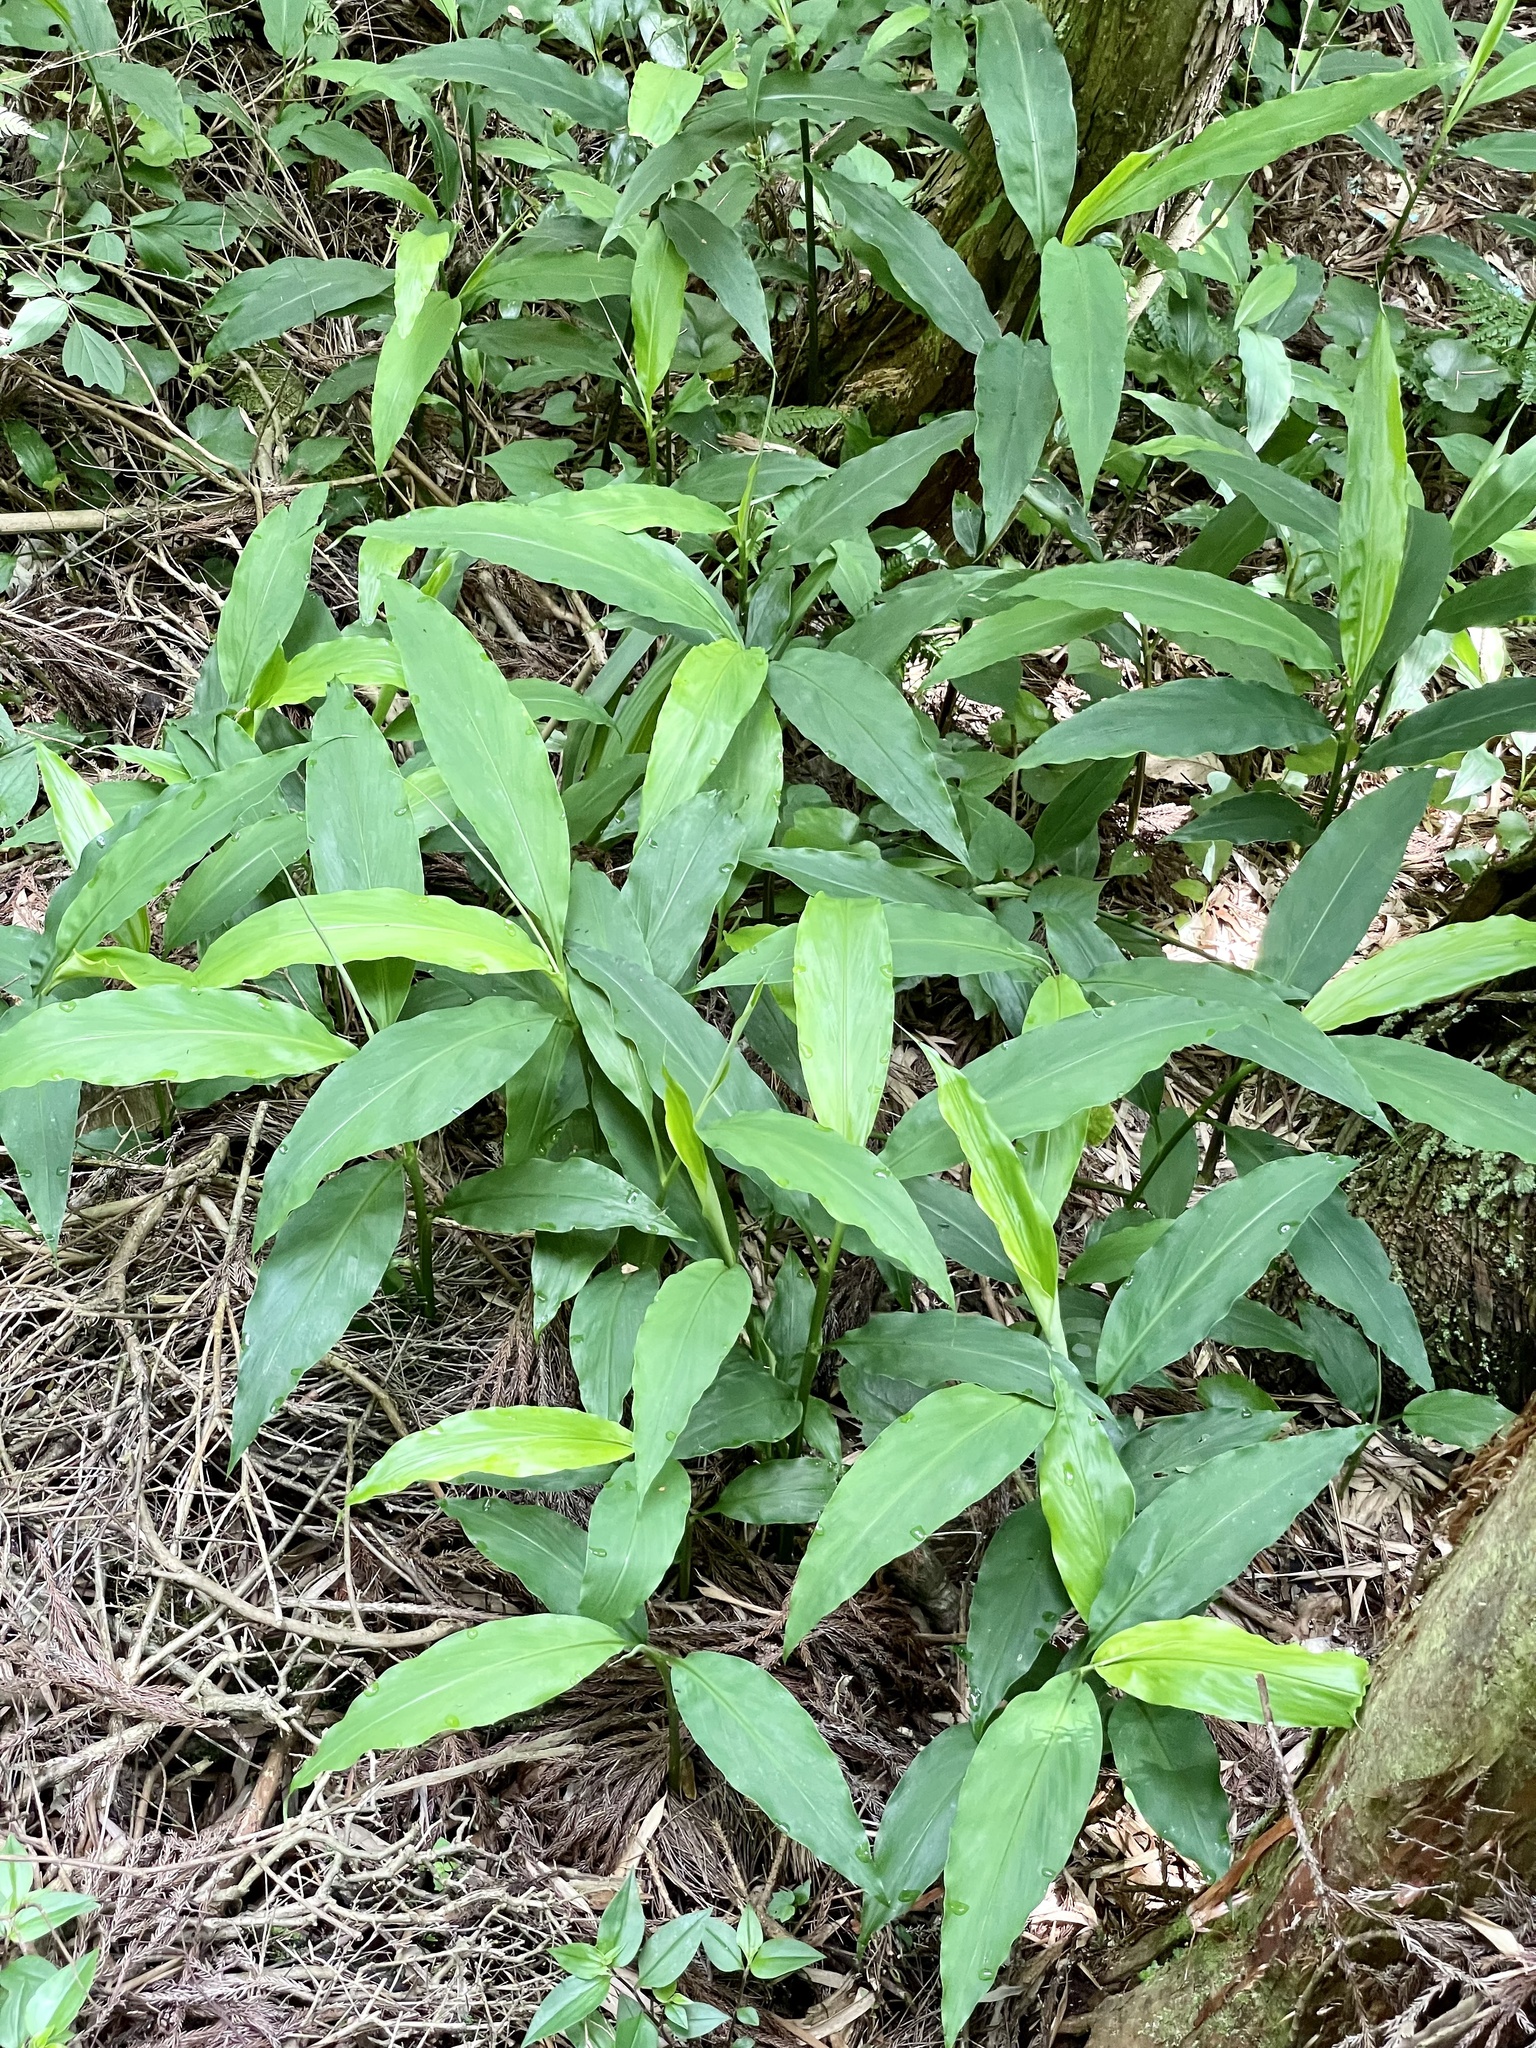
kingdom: Plantae
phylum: Tracheophyta
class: Liliopsida
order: Zingiberales
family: Zingiberaceae
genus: Zingiber
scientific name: Zingiber mioga
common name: Japanese ginger
